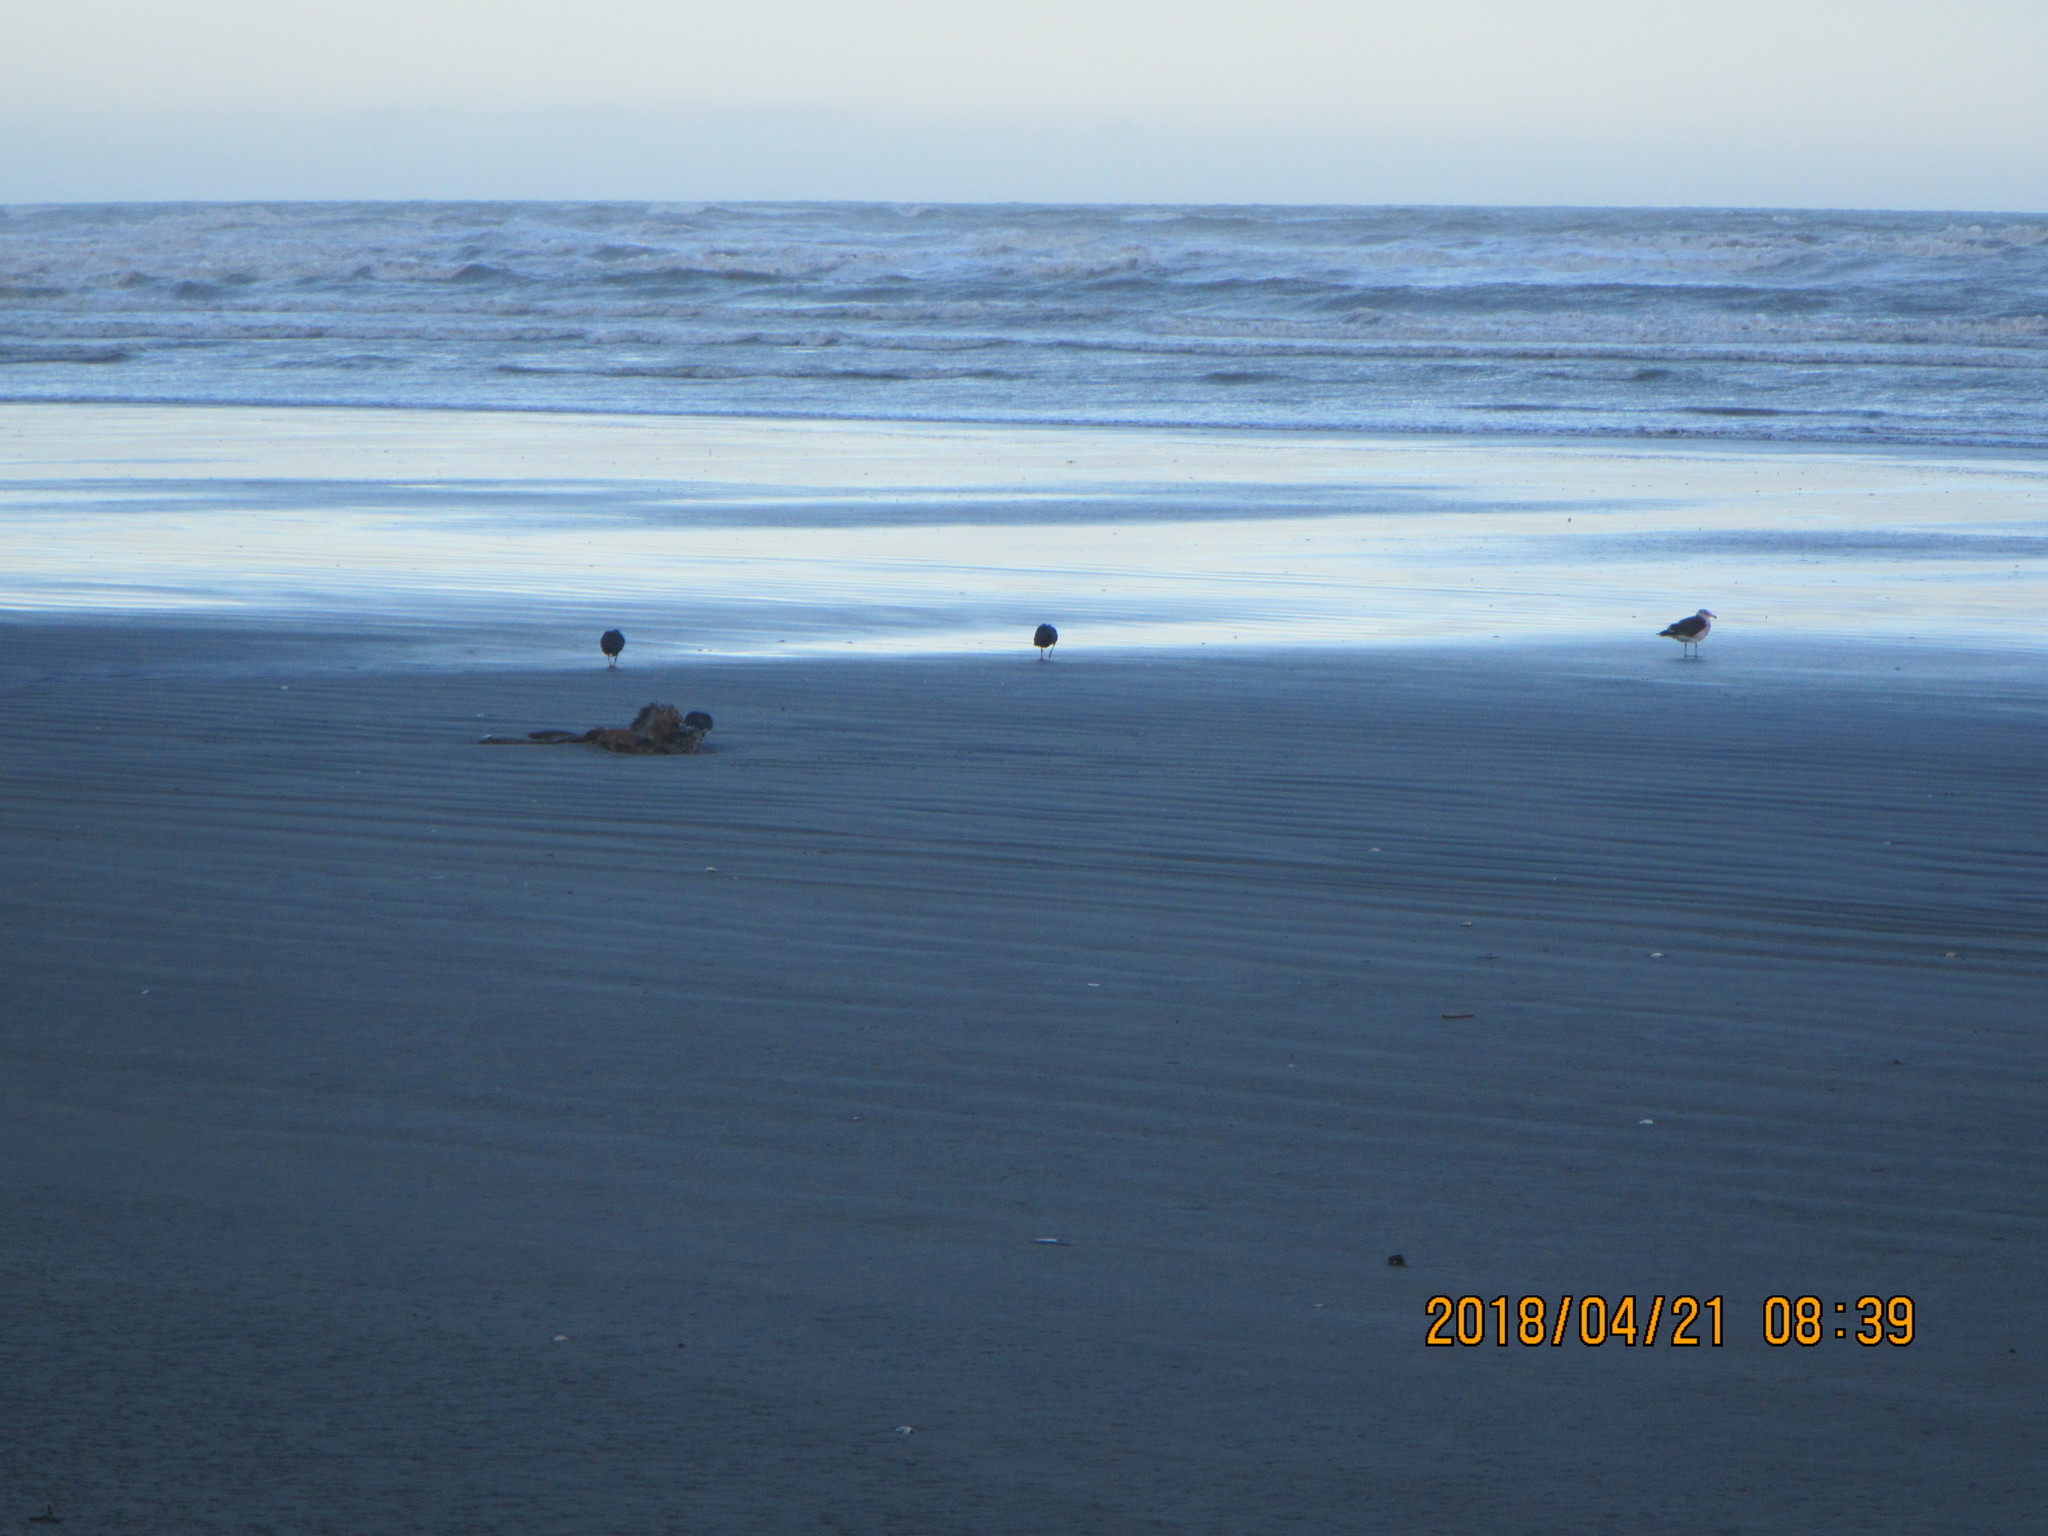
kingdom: Animalia
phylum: Chordata
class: Aves
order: Charadriiformes
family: Haematopodidae
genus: Haematopus
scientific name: Haematopus unicolor
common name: Variable oystercatcher
